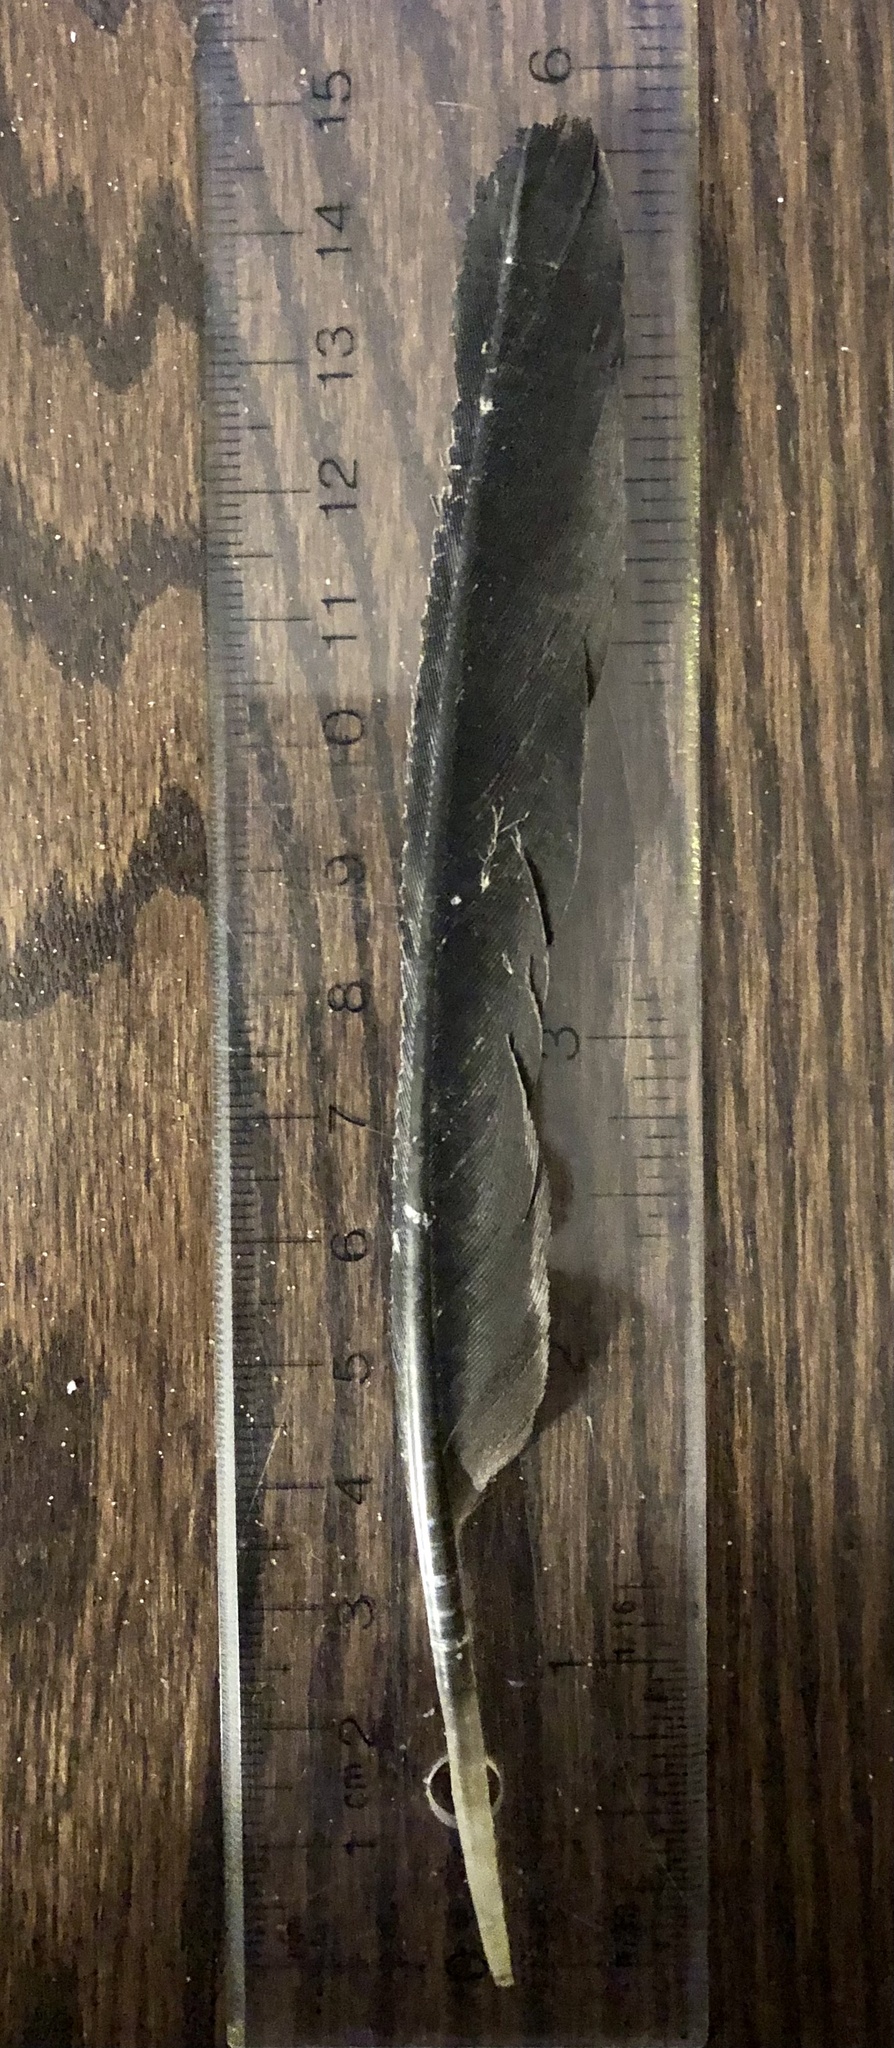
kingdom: Animalia
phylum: Chordata
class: Aves
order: Suliformes
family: Phalacrocoracidae
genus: Phalacrocorax
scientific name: Phalacrocorax auritus
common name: Double-crested cormorant
